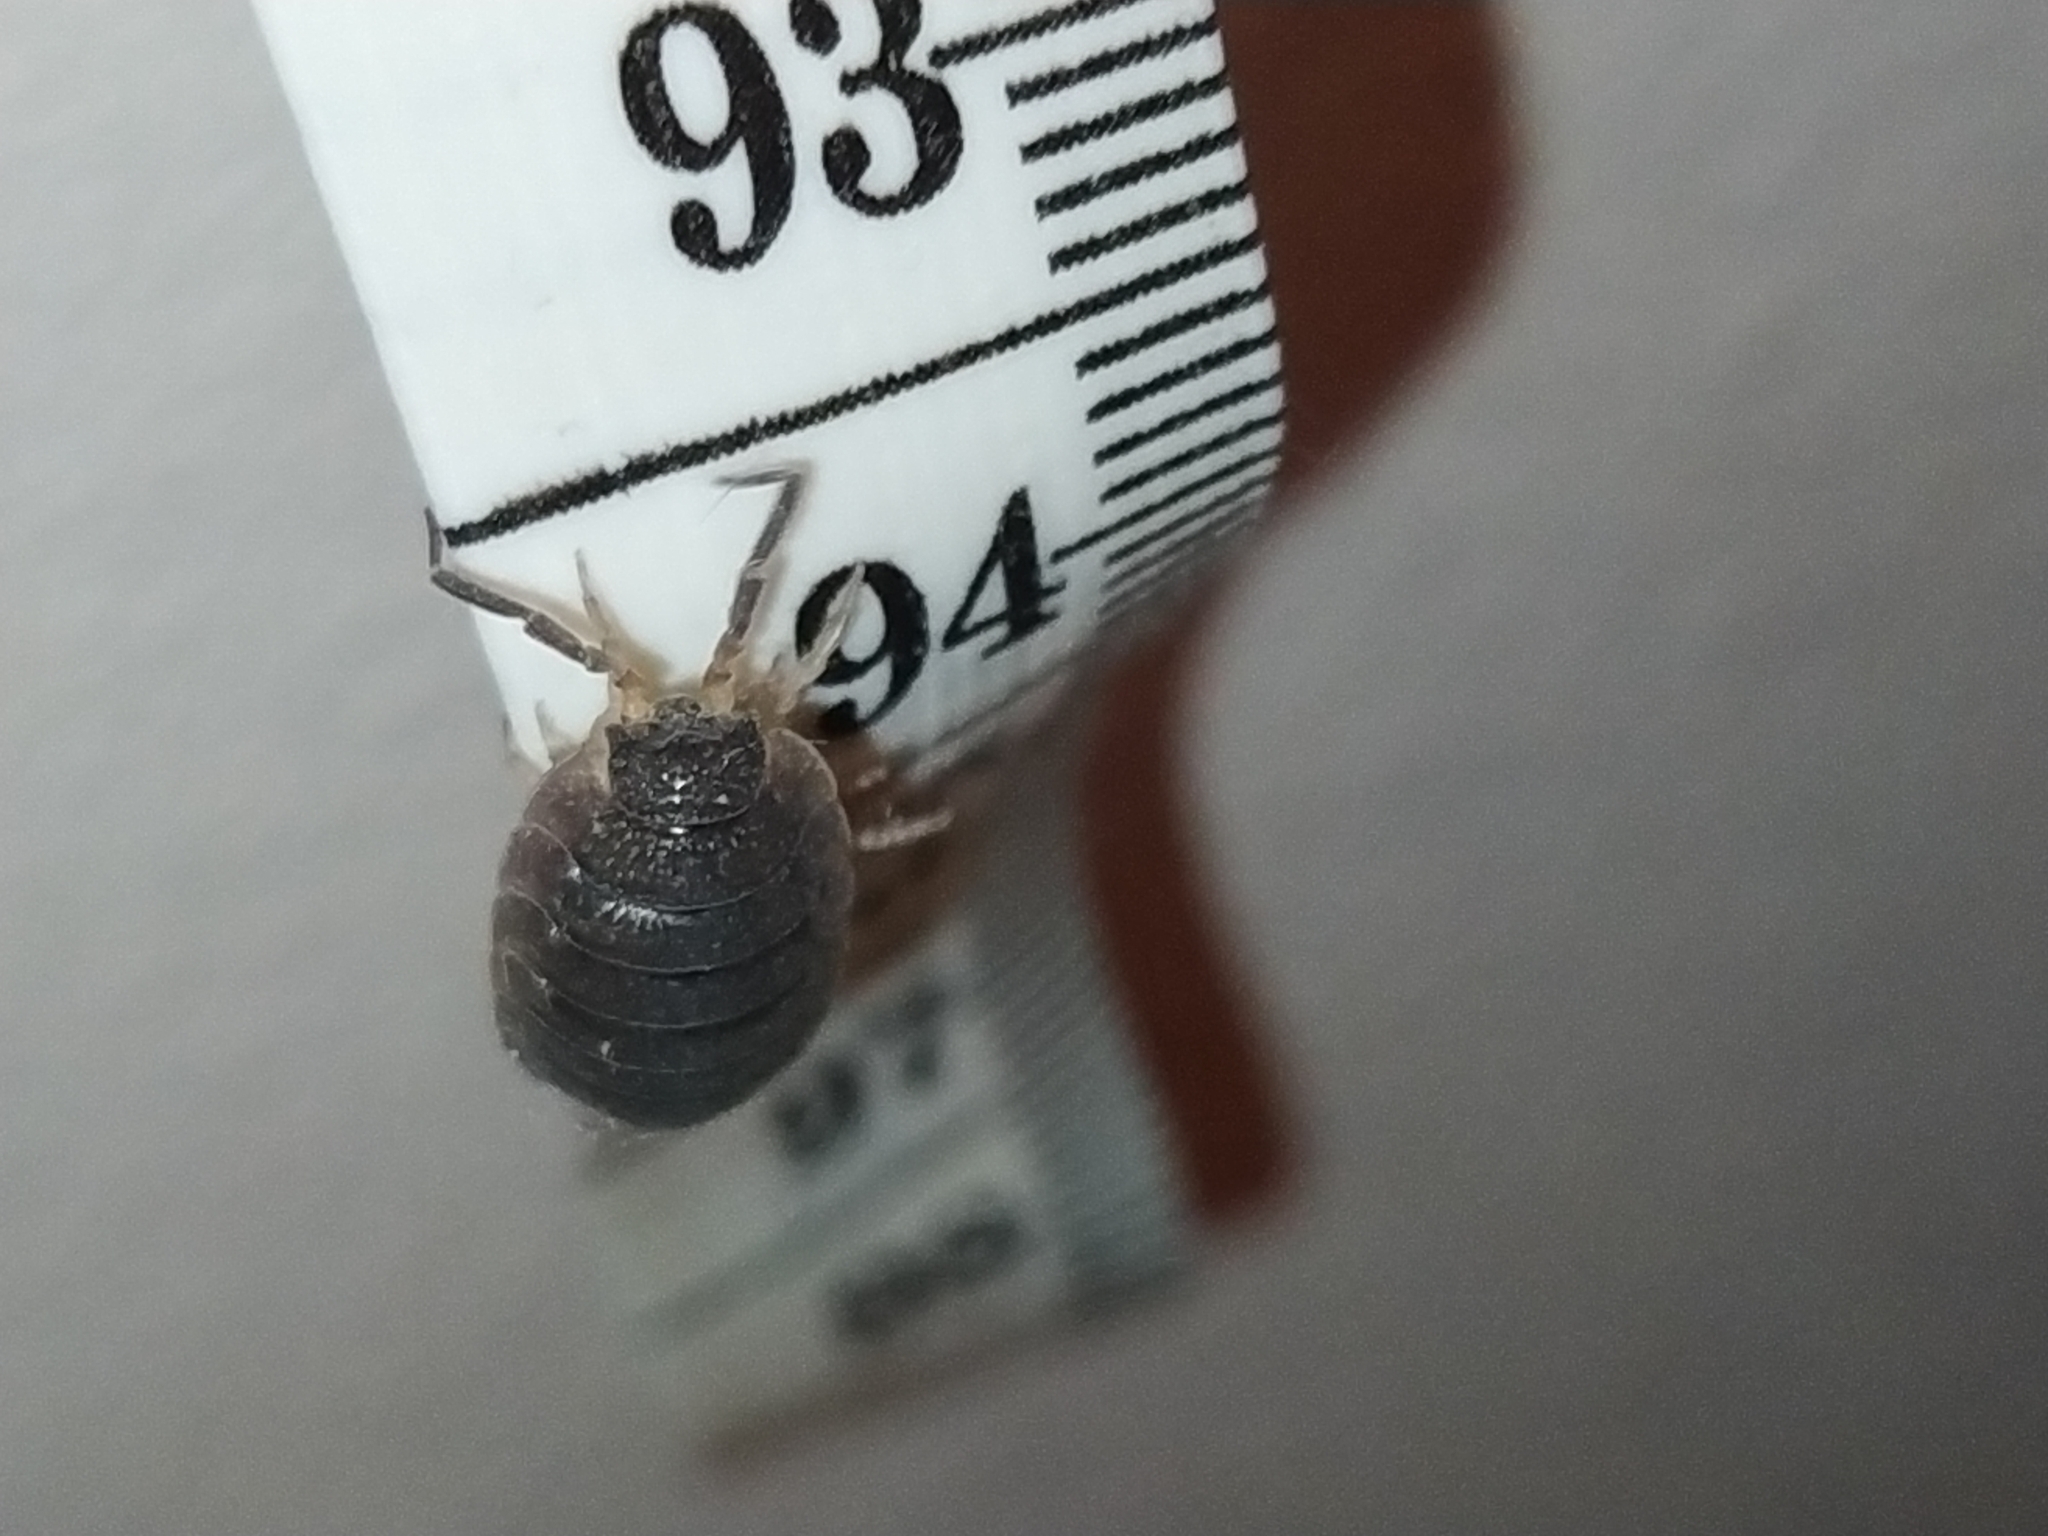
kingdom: Animalia
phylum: Arthropoda
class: Malacostraca
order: Isopoda
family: Porcellionidae
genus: Porcellio
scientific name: Porcellio scaber
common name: Common rough woodlouse
